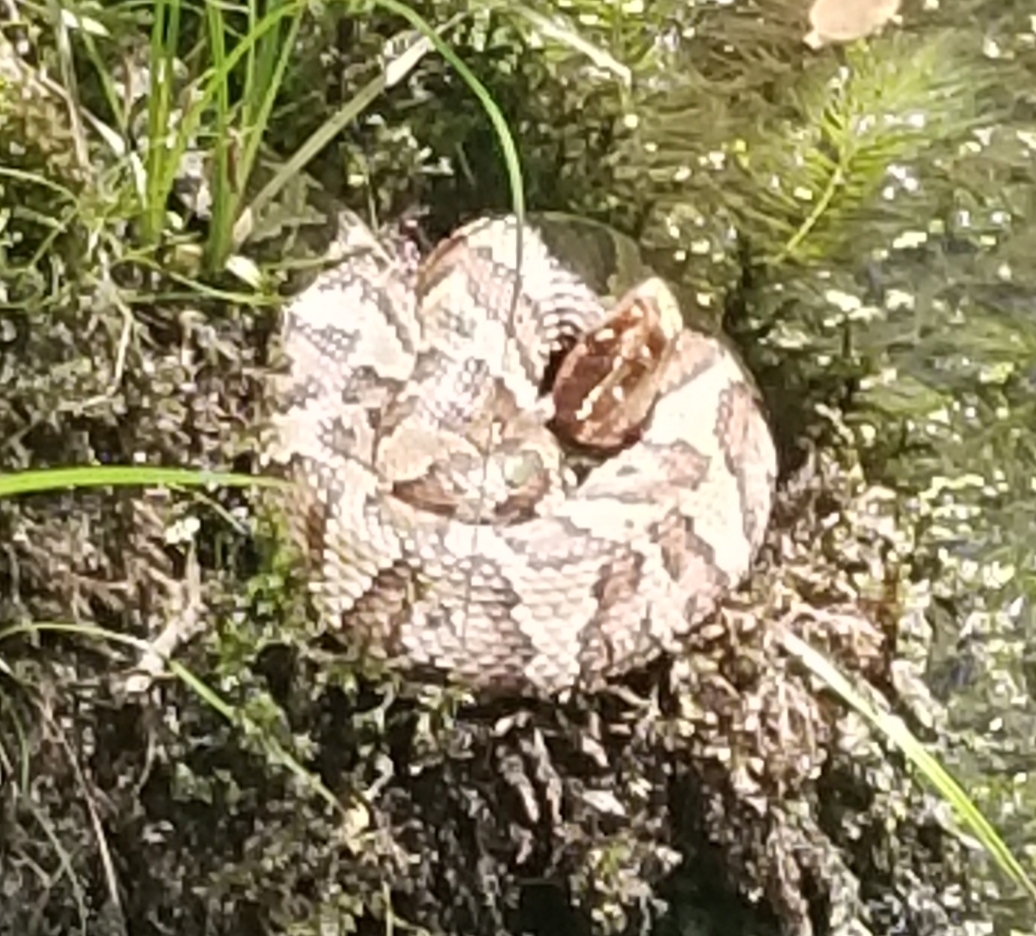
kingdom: Animalia
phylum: Chordata
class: Squamata
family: Viperidae
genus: Agkistrodon
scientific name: Agkistrodon piscivorus
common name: Cottonmouth
